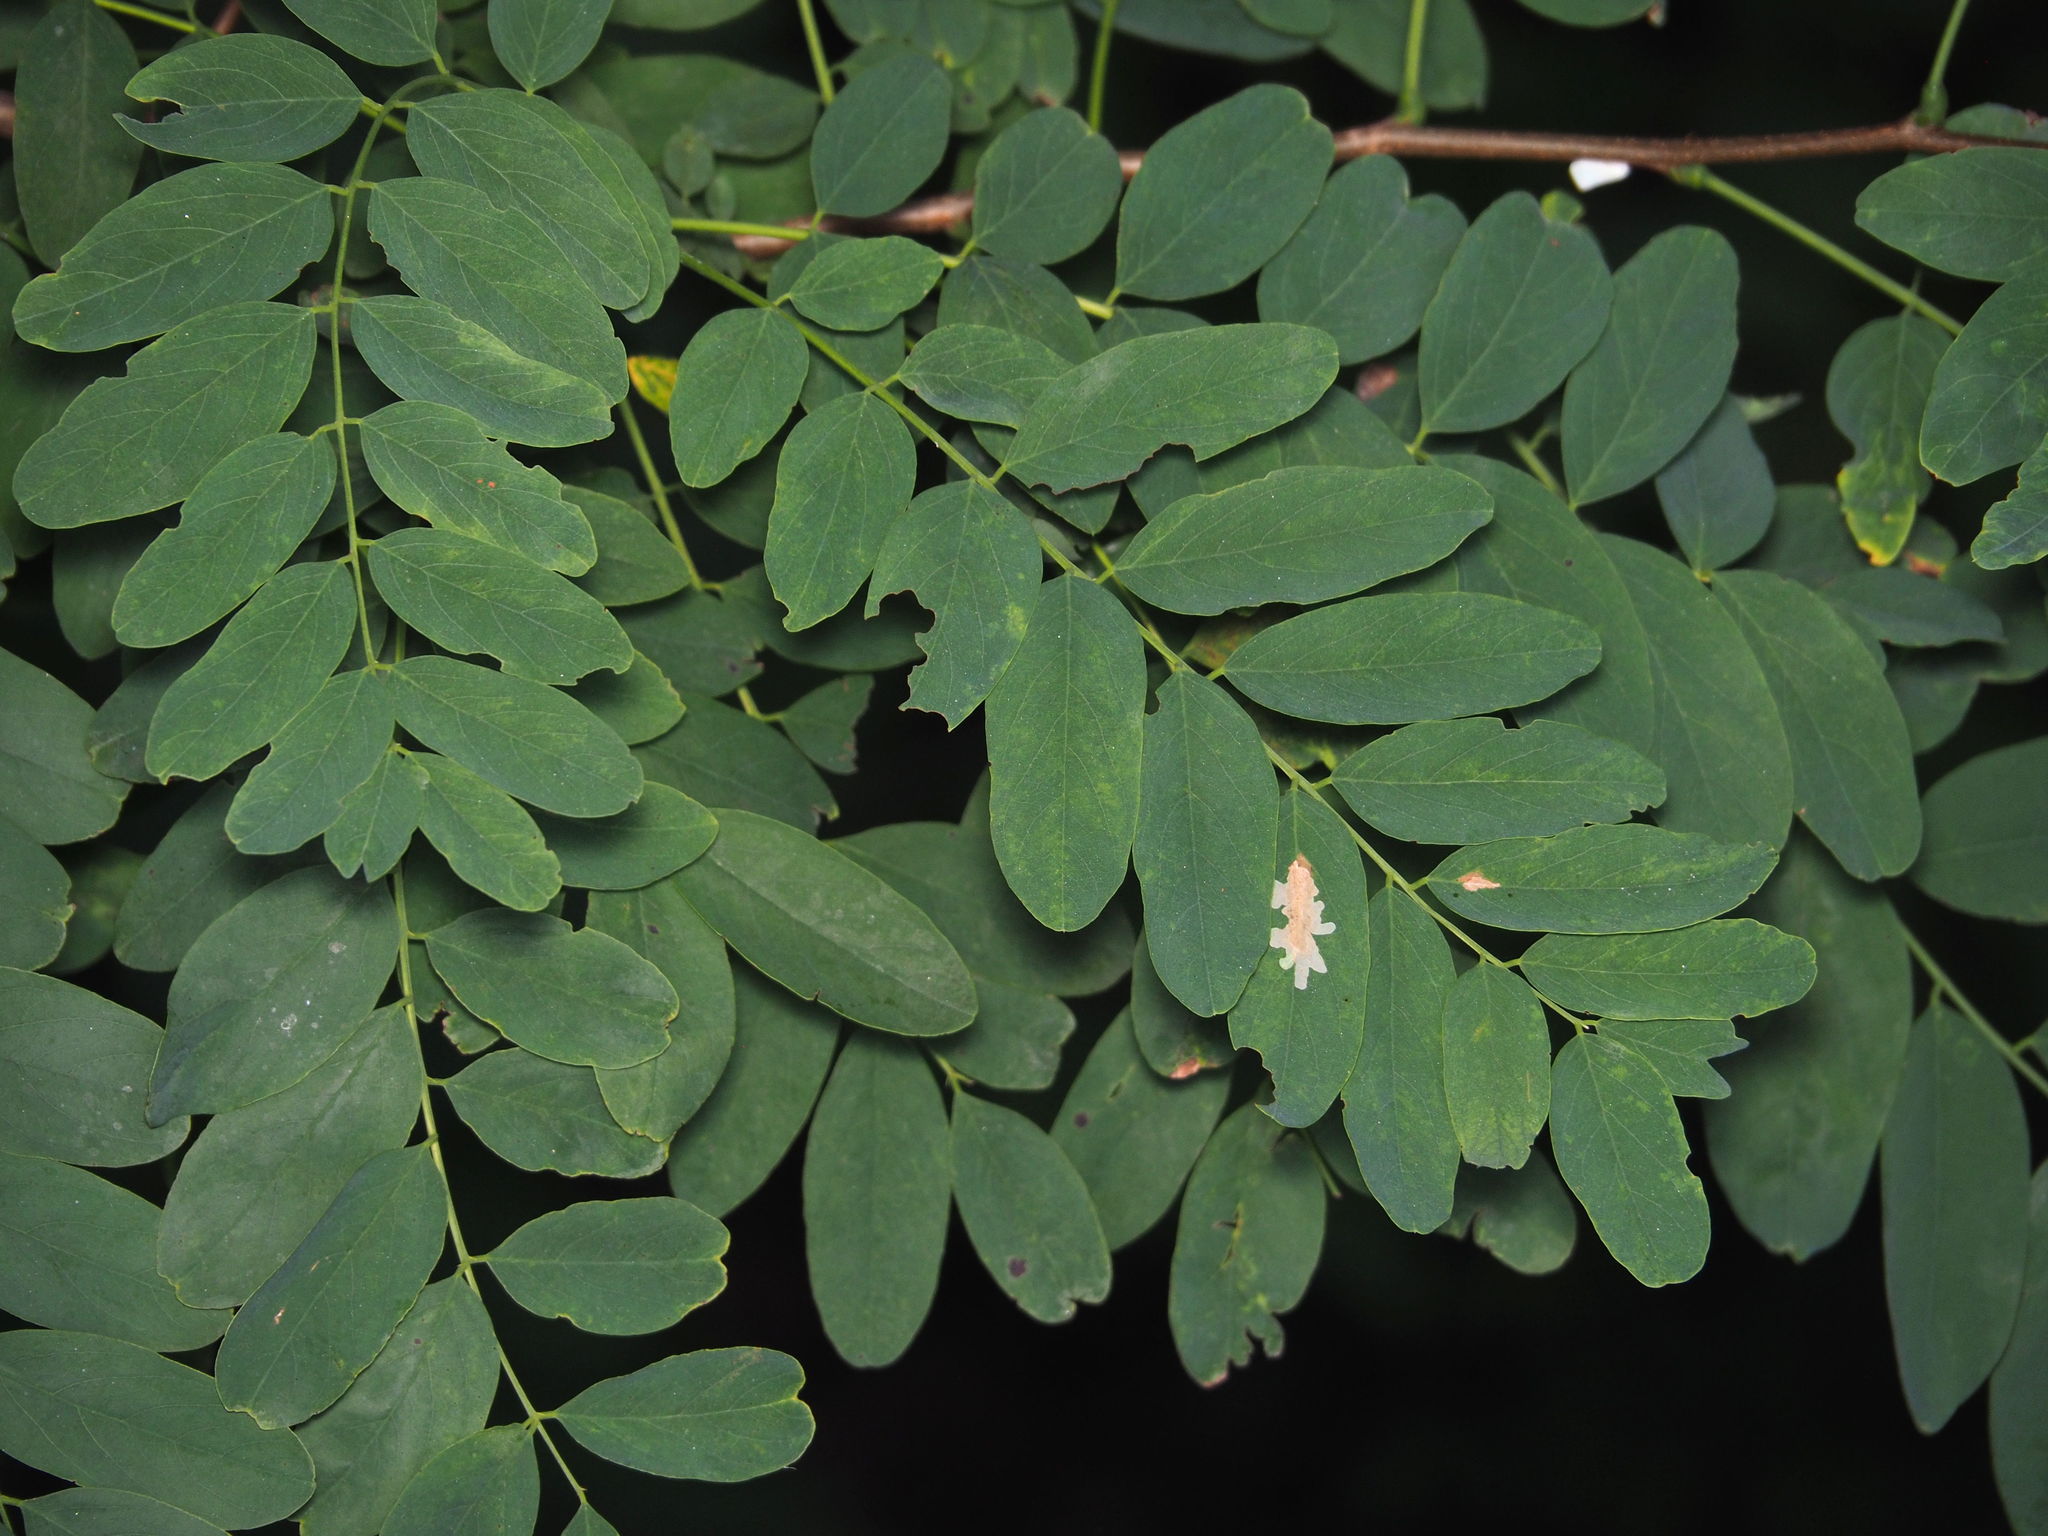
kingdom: Animalia
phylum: Arthropoda
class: Insecta
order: Lepidoptera
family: Gracillariidae
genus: Parectopa
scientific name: Parectopa robiniella
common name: Locust digitate leafminer
